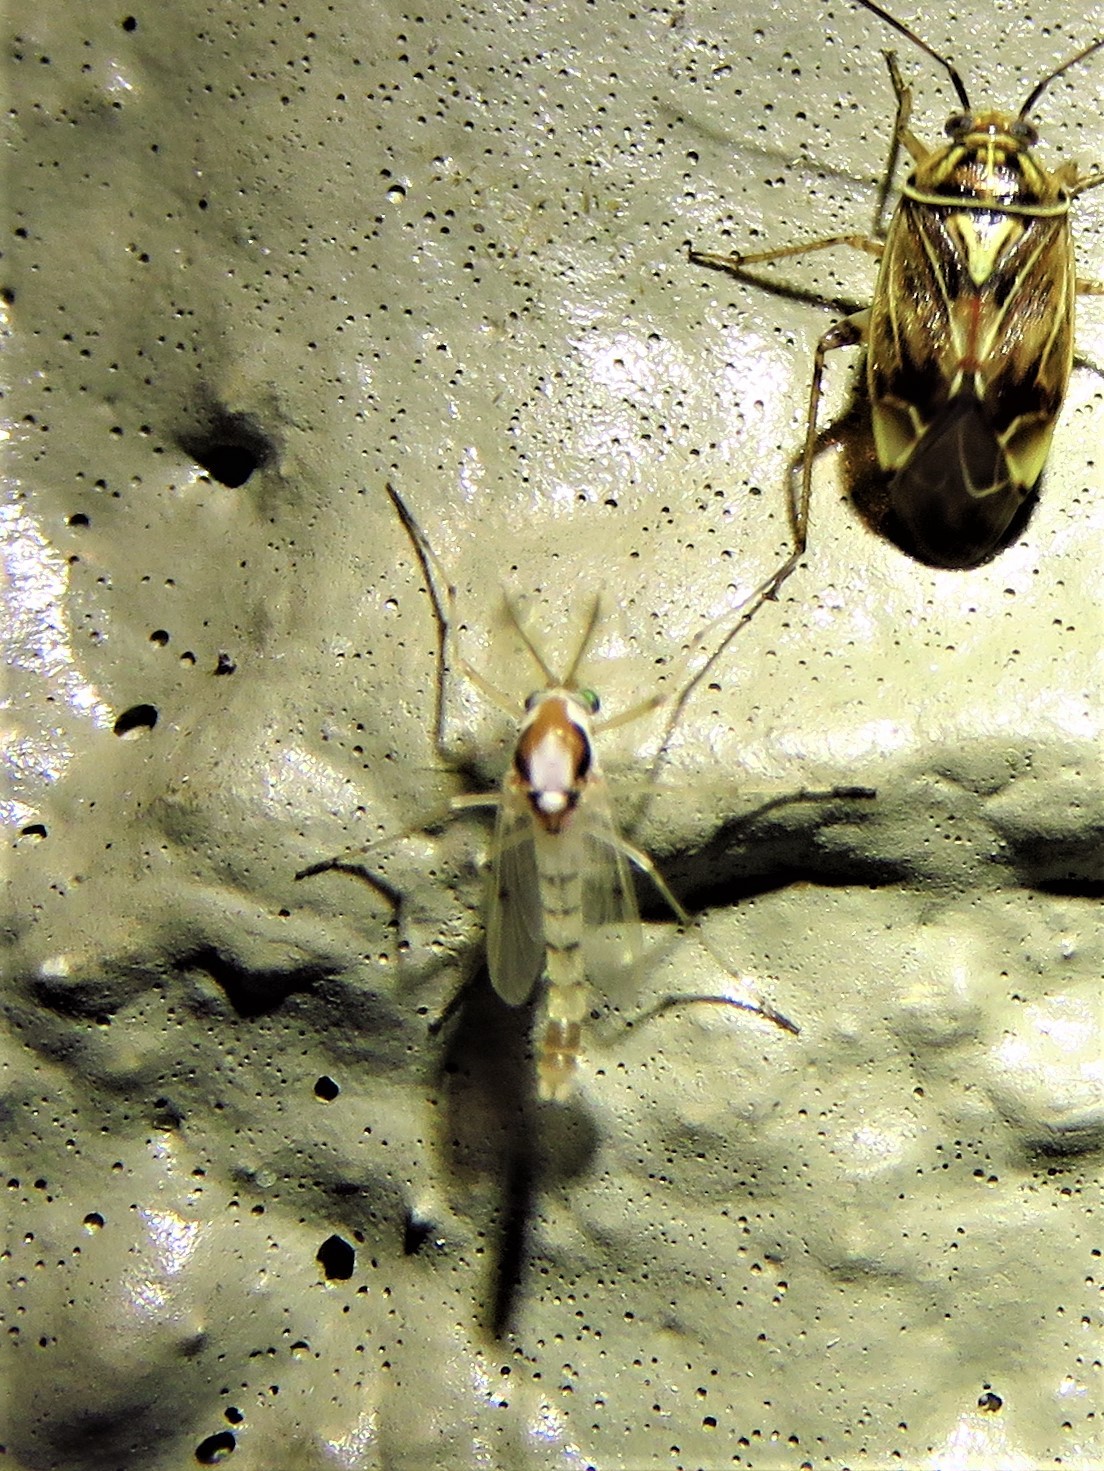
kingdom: Animalia
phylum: Arthropoda
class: Insecta
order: Diptera
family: Chironomidae
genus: Coelotanypus
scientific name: Coelotanypus concinnus
